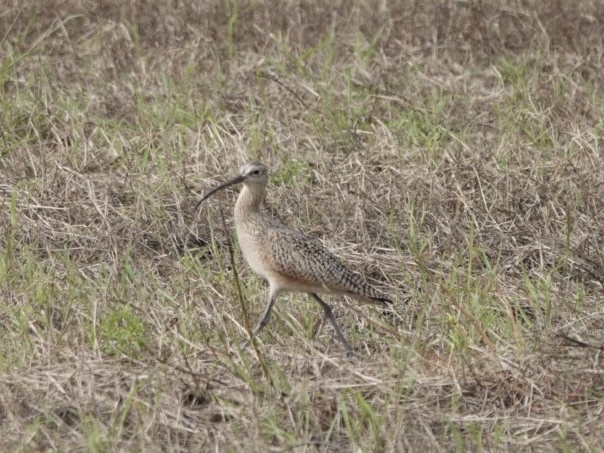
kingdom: Animalia
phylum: Chordata
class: Aves
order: Charadriiformes
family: Scolopacidae
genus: Numenius
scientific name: Numenius americanus
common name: Long-billed curlew
